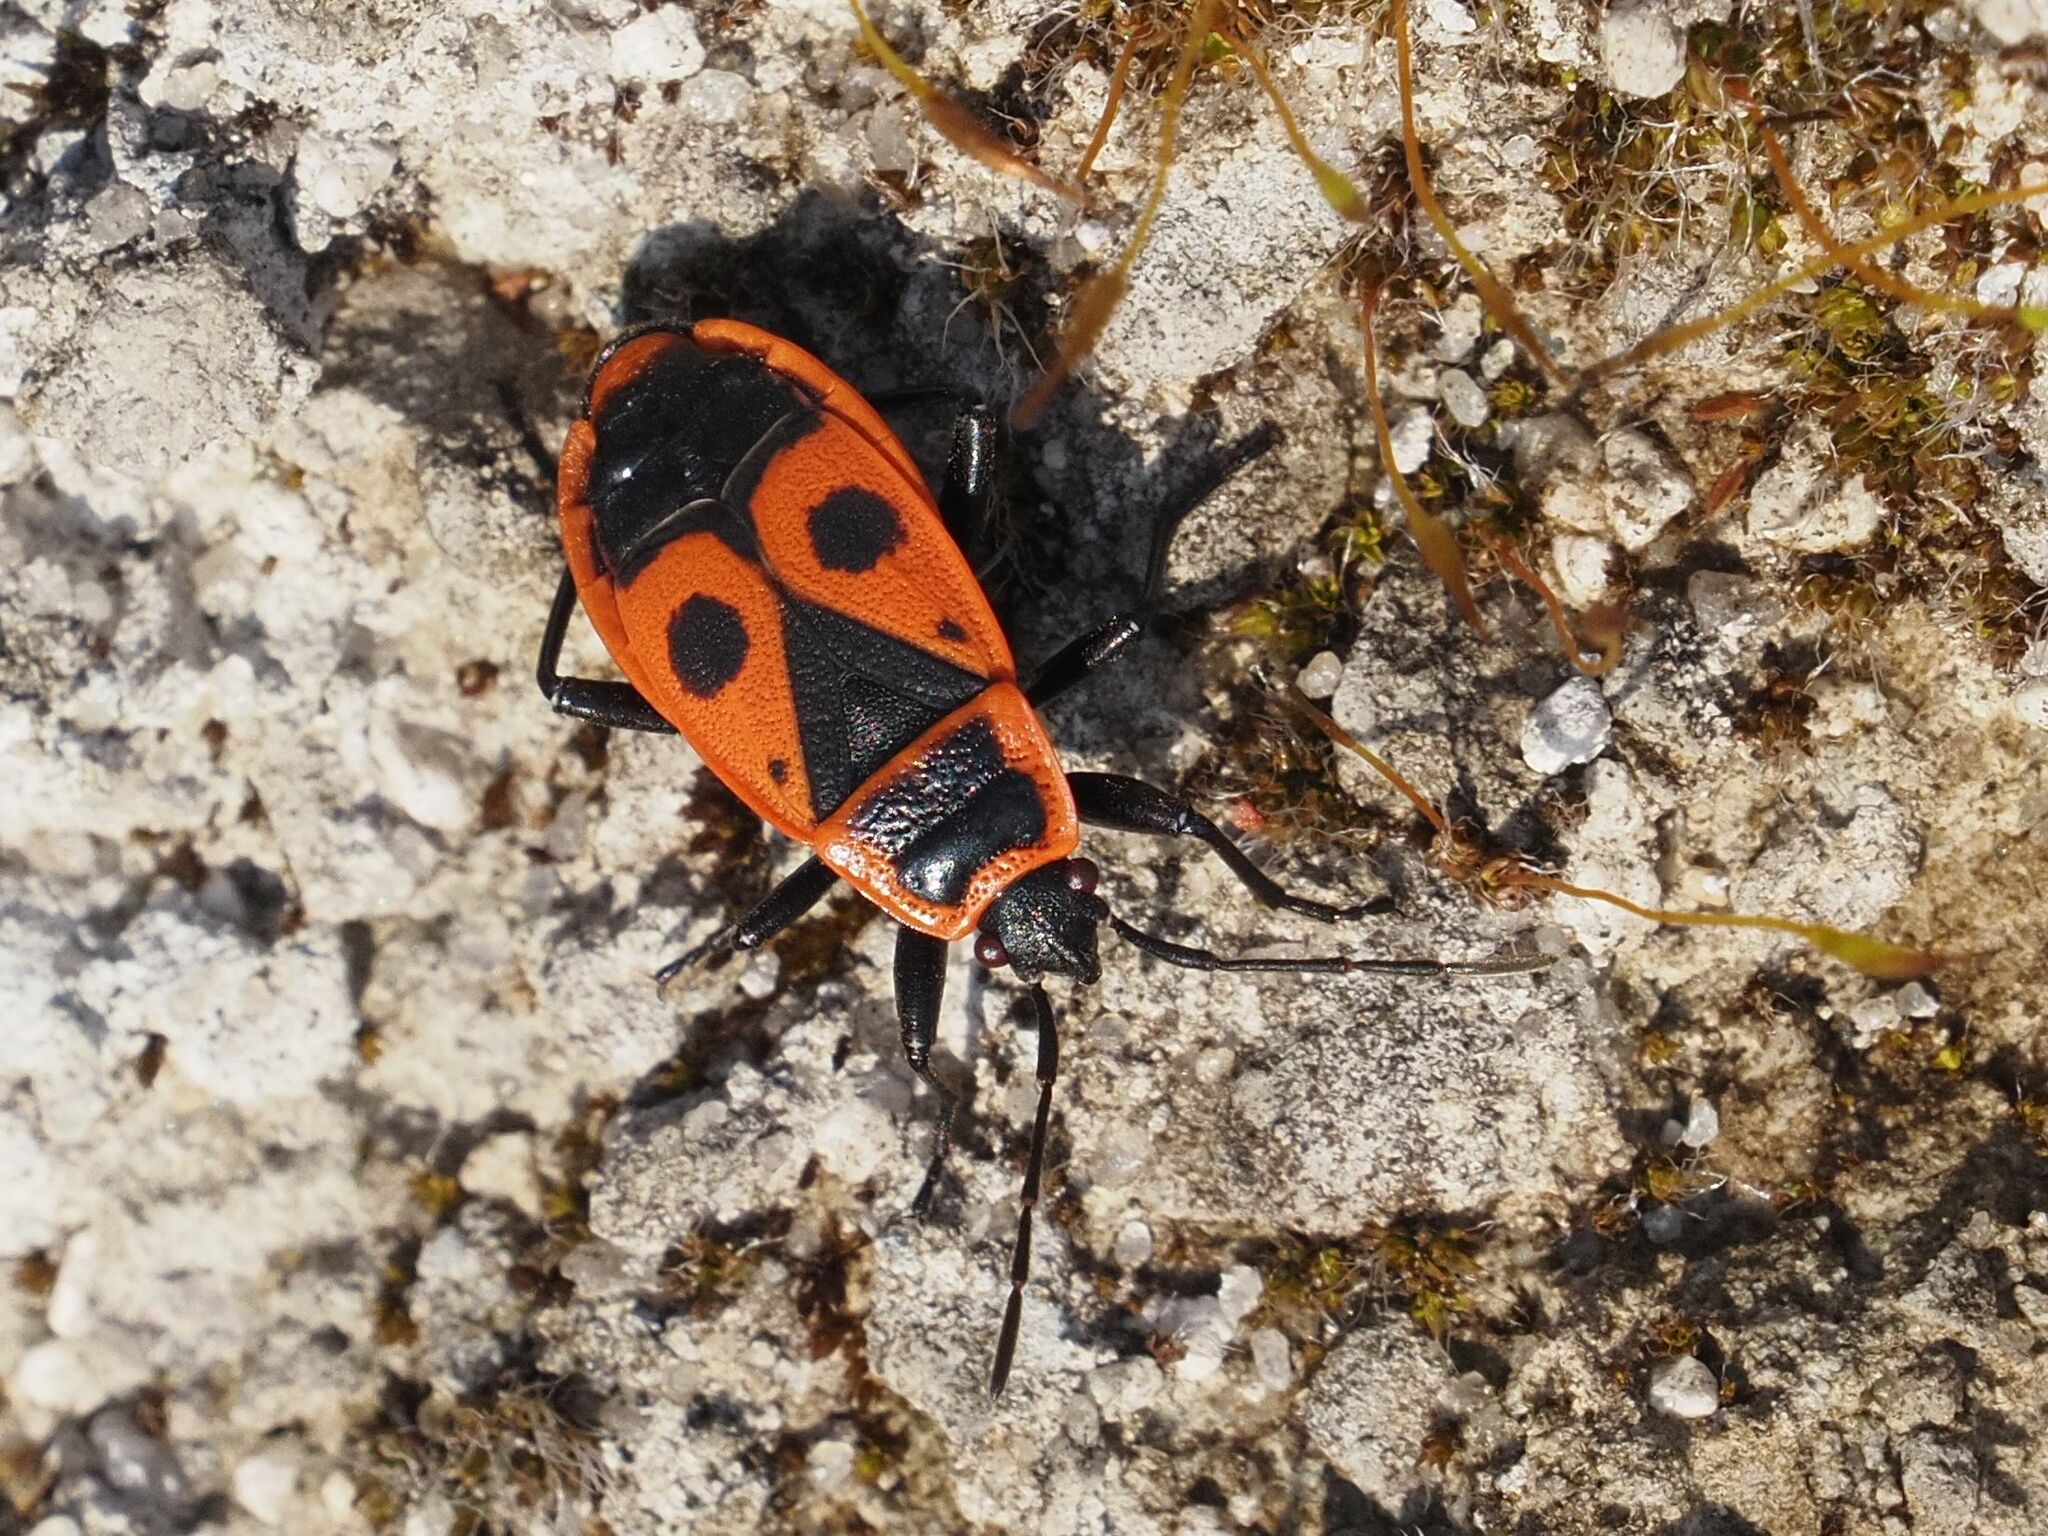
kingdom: Animalia
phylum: Arthropoda
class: Insecta
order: Hemiptera
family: Pyrrhocoridae
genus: Pyrrhocoris
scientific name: Pyrrhocoris apterus
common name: Firebug
